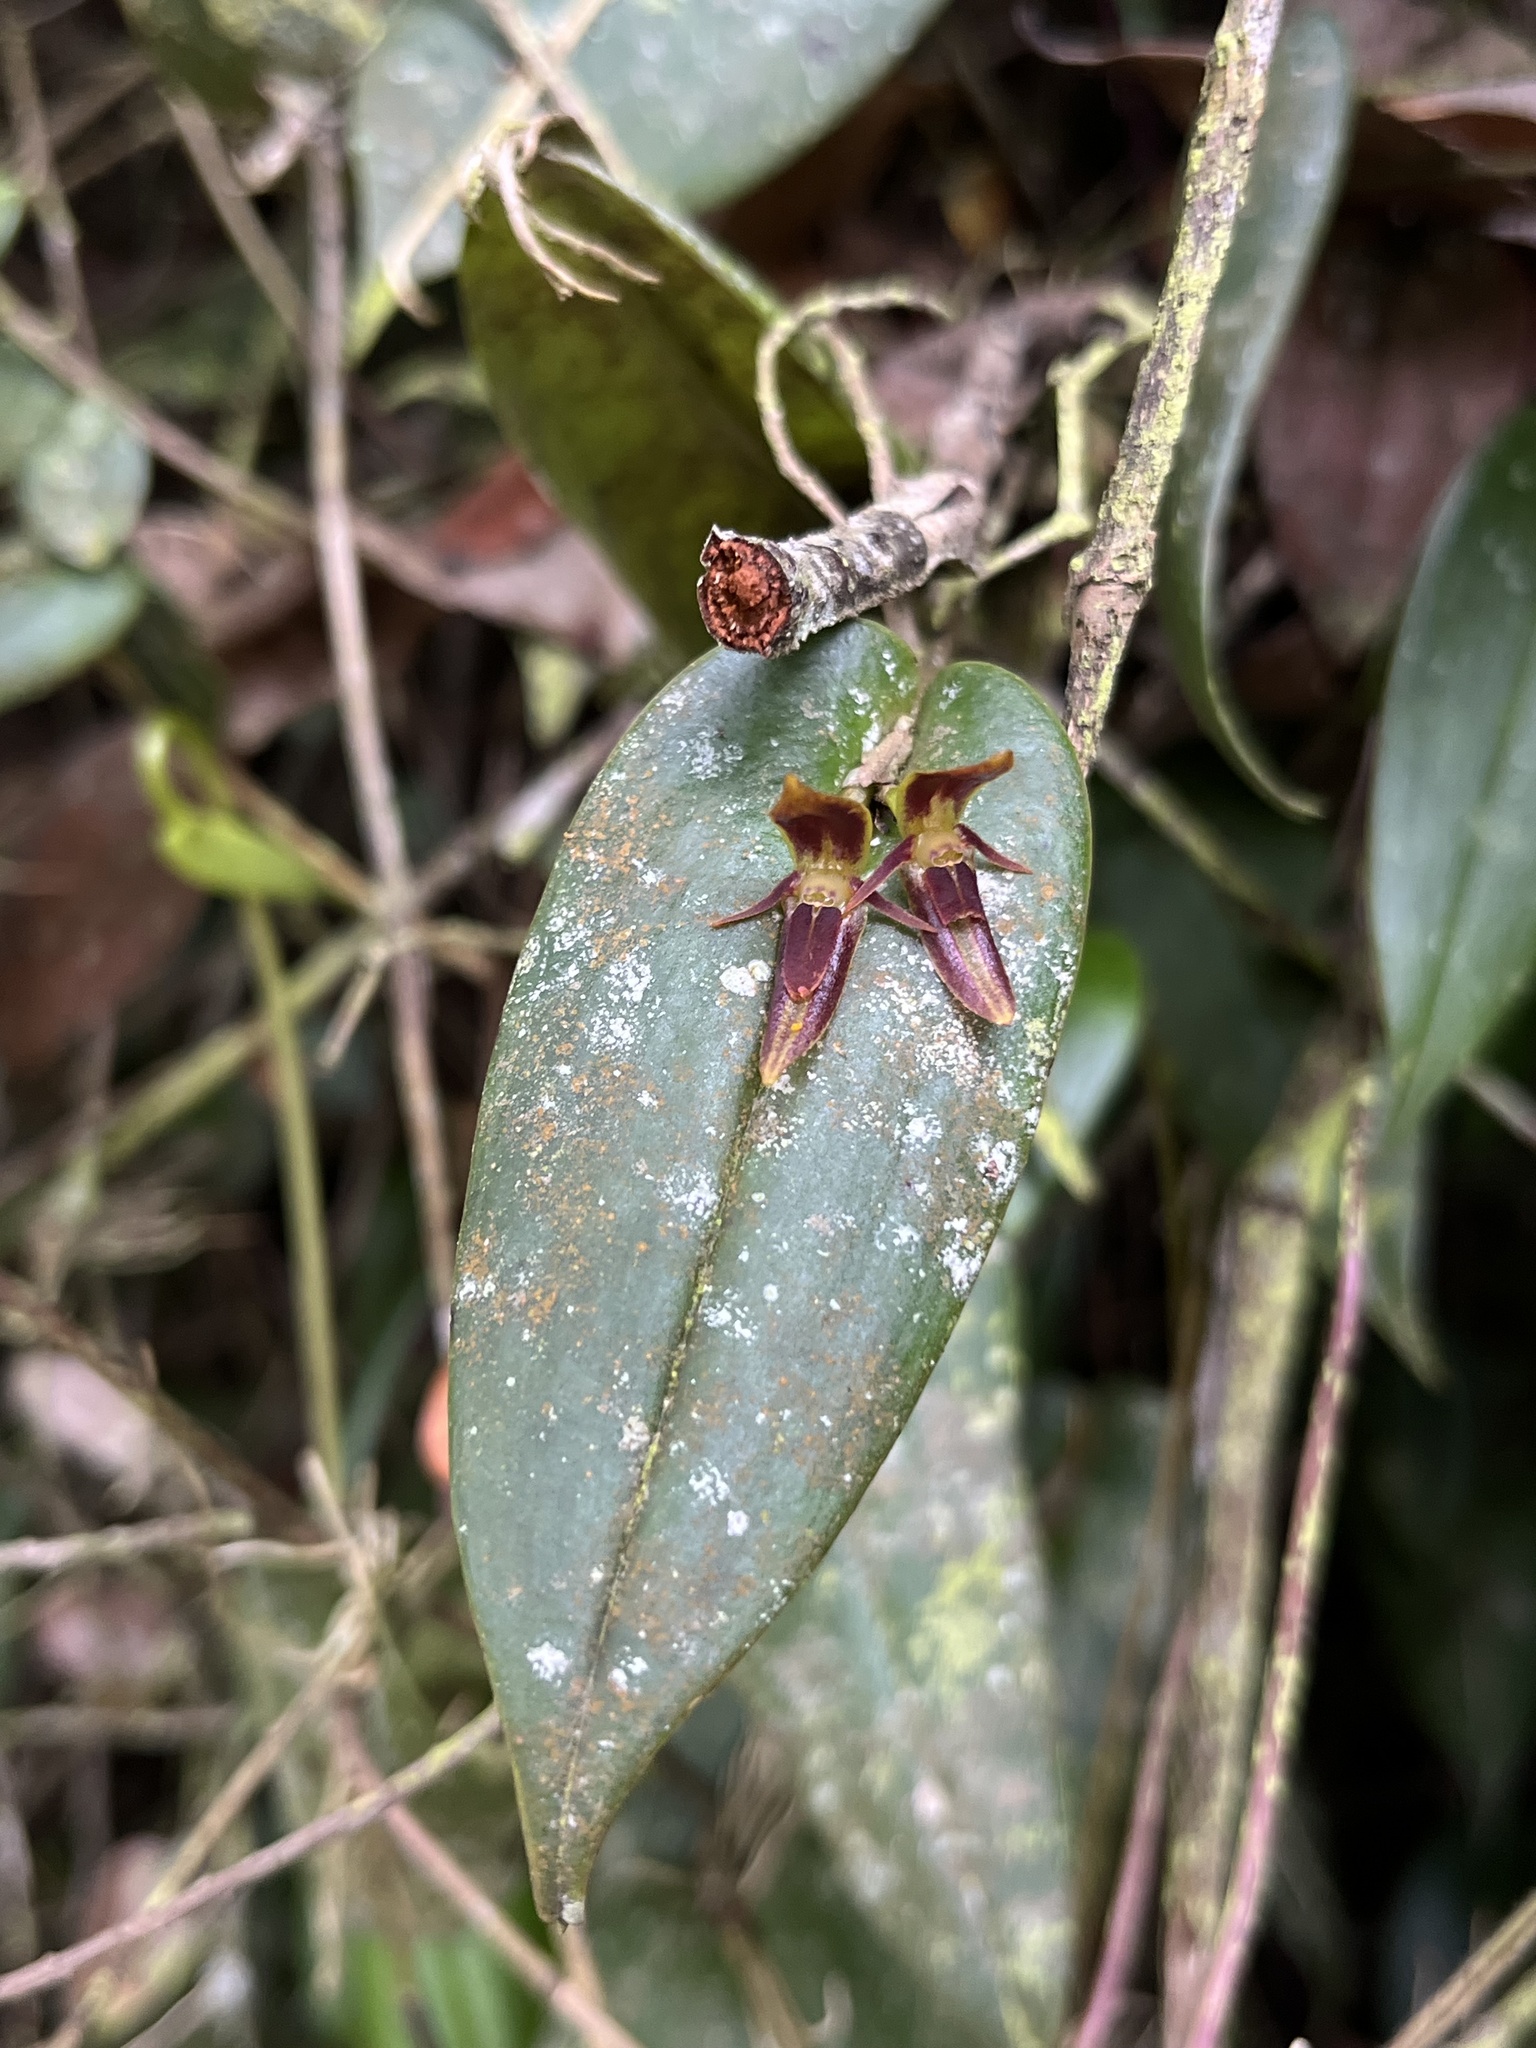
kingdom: Plantae
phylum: Tracheophyta
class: Liliopsida
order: Asparagales
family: Orchidaceae
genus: Pleurothallis
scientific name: Pleurothallis coriacardia
